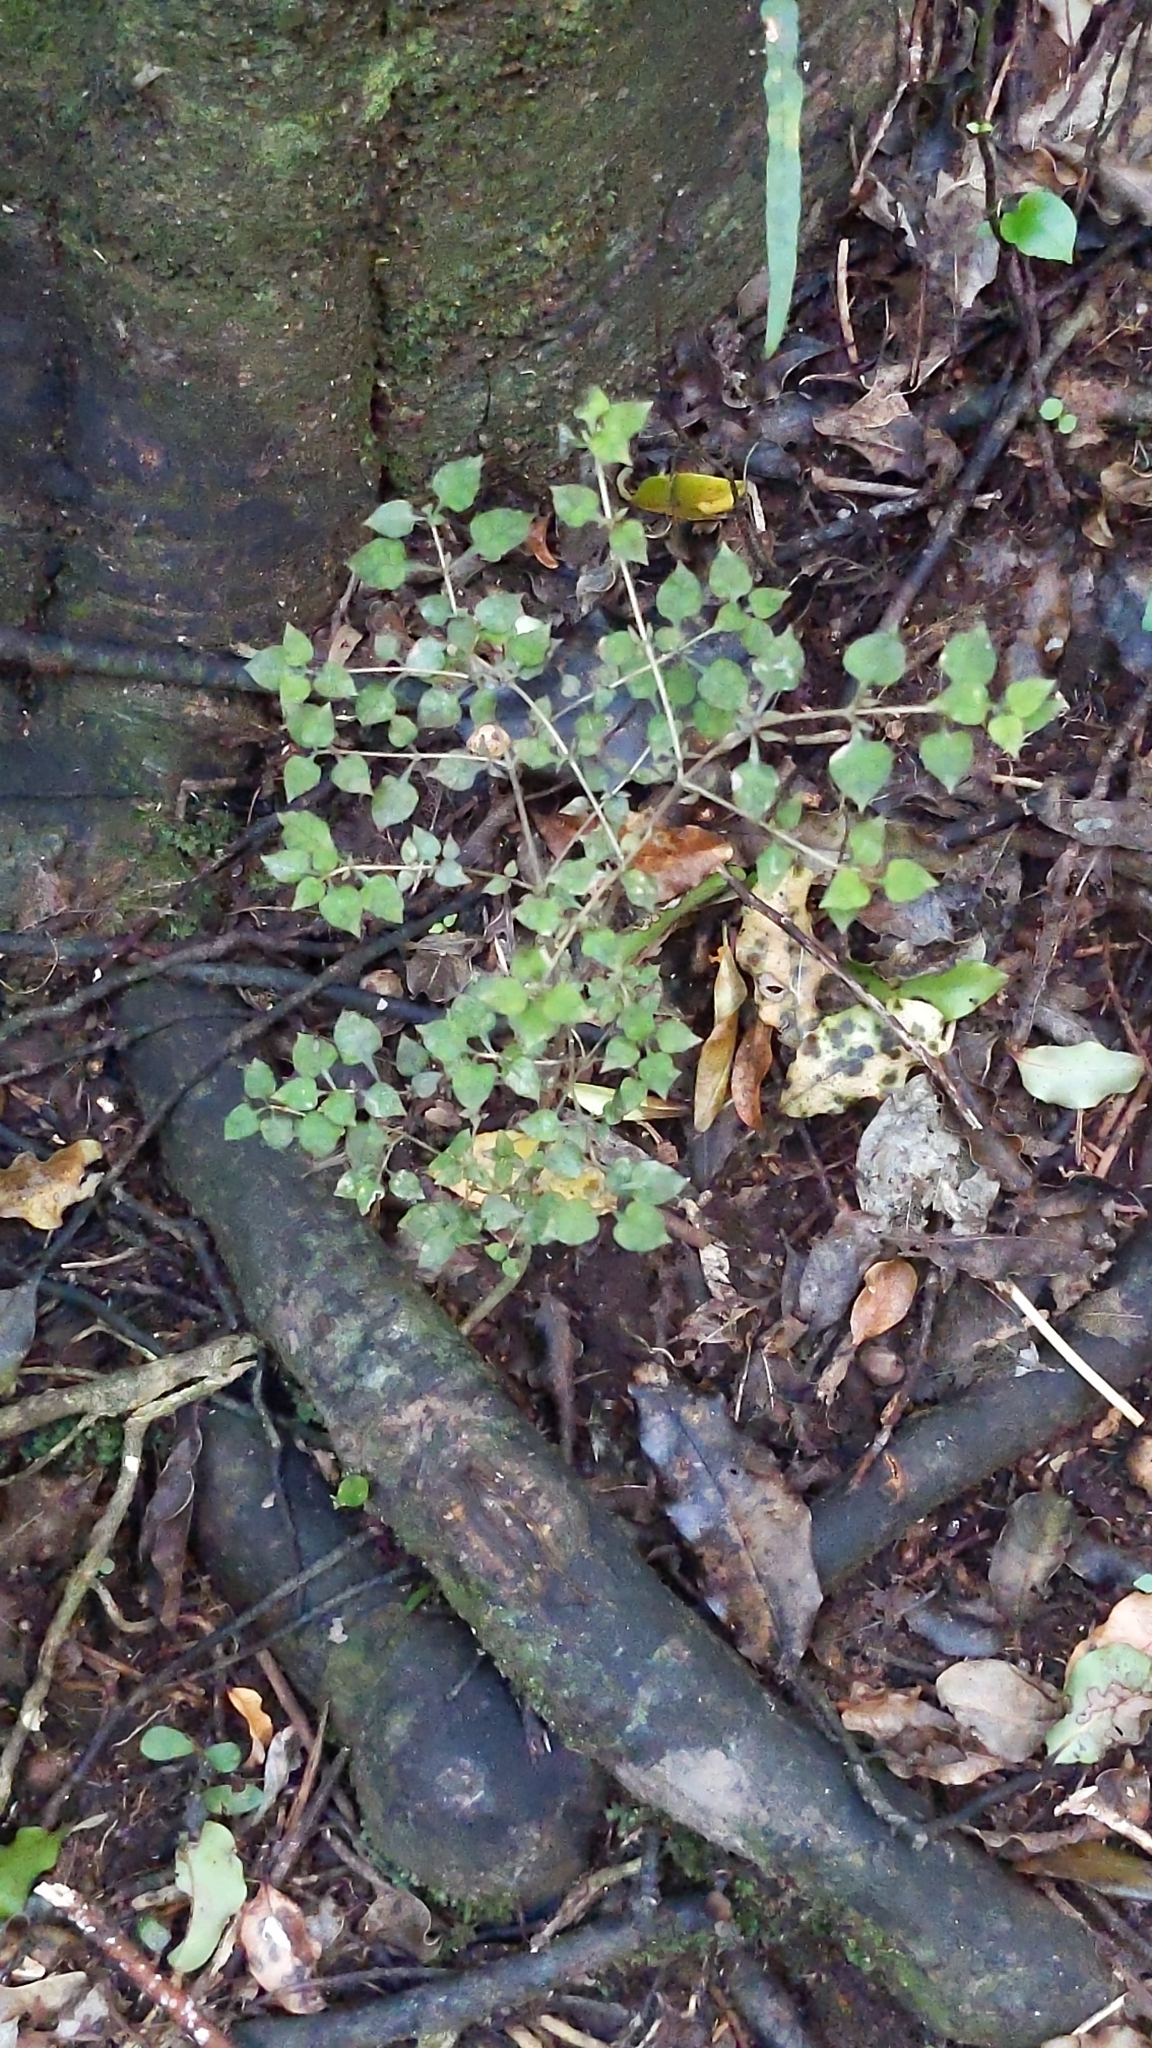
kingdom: Plantae
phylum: Tracheophyta
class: Magnoliopsida
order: Gentianales
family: Rubiaceae
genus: Coprosma
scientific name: Coprosma areolata
